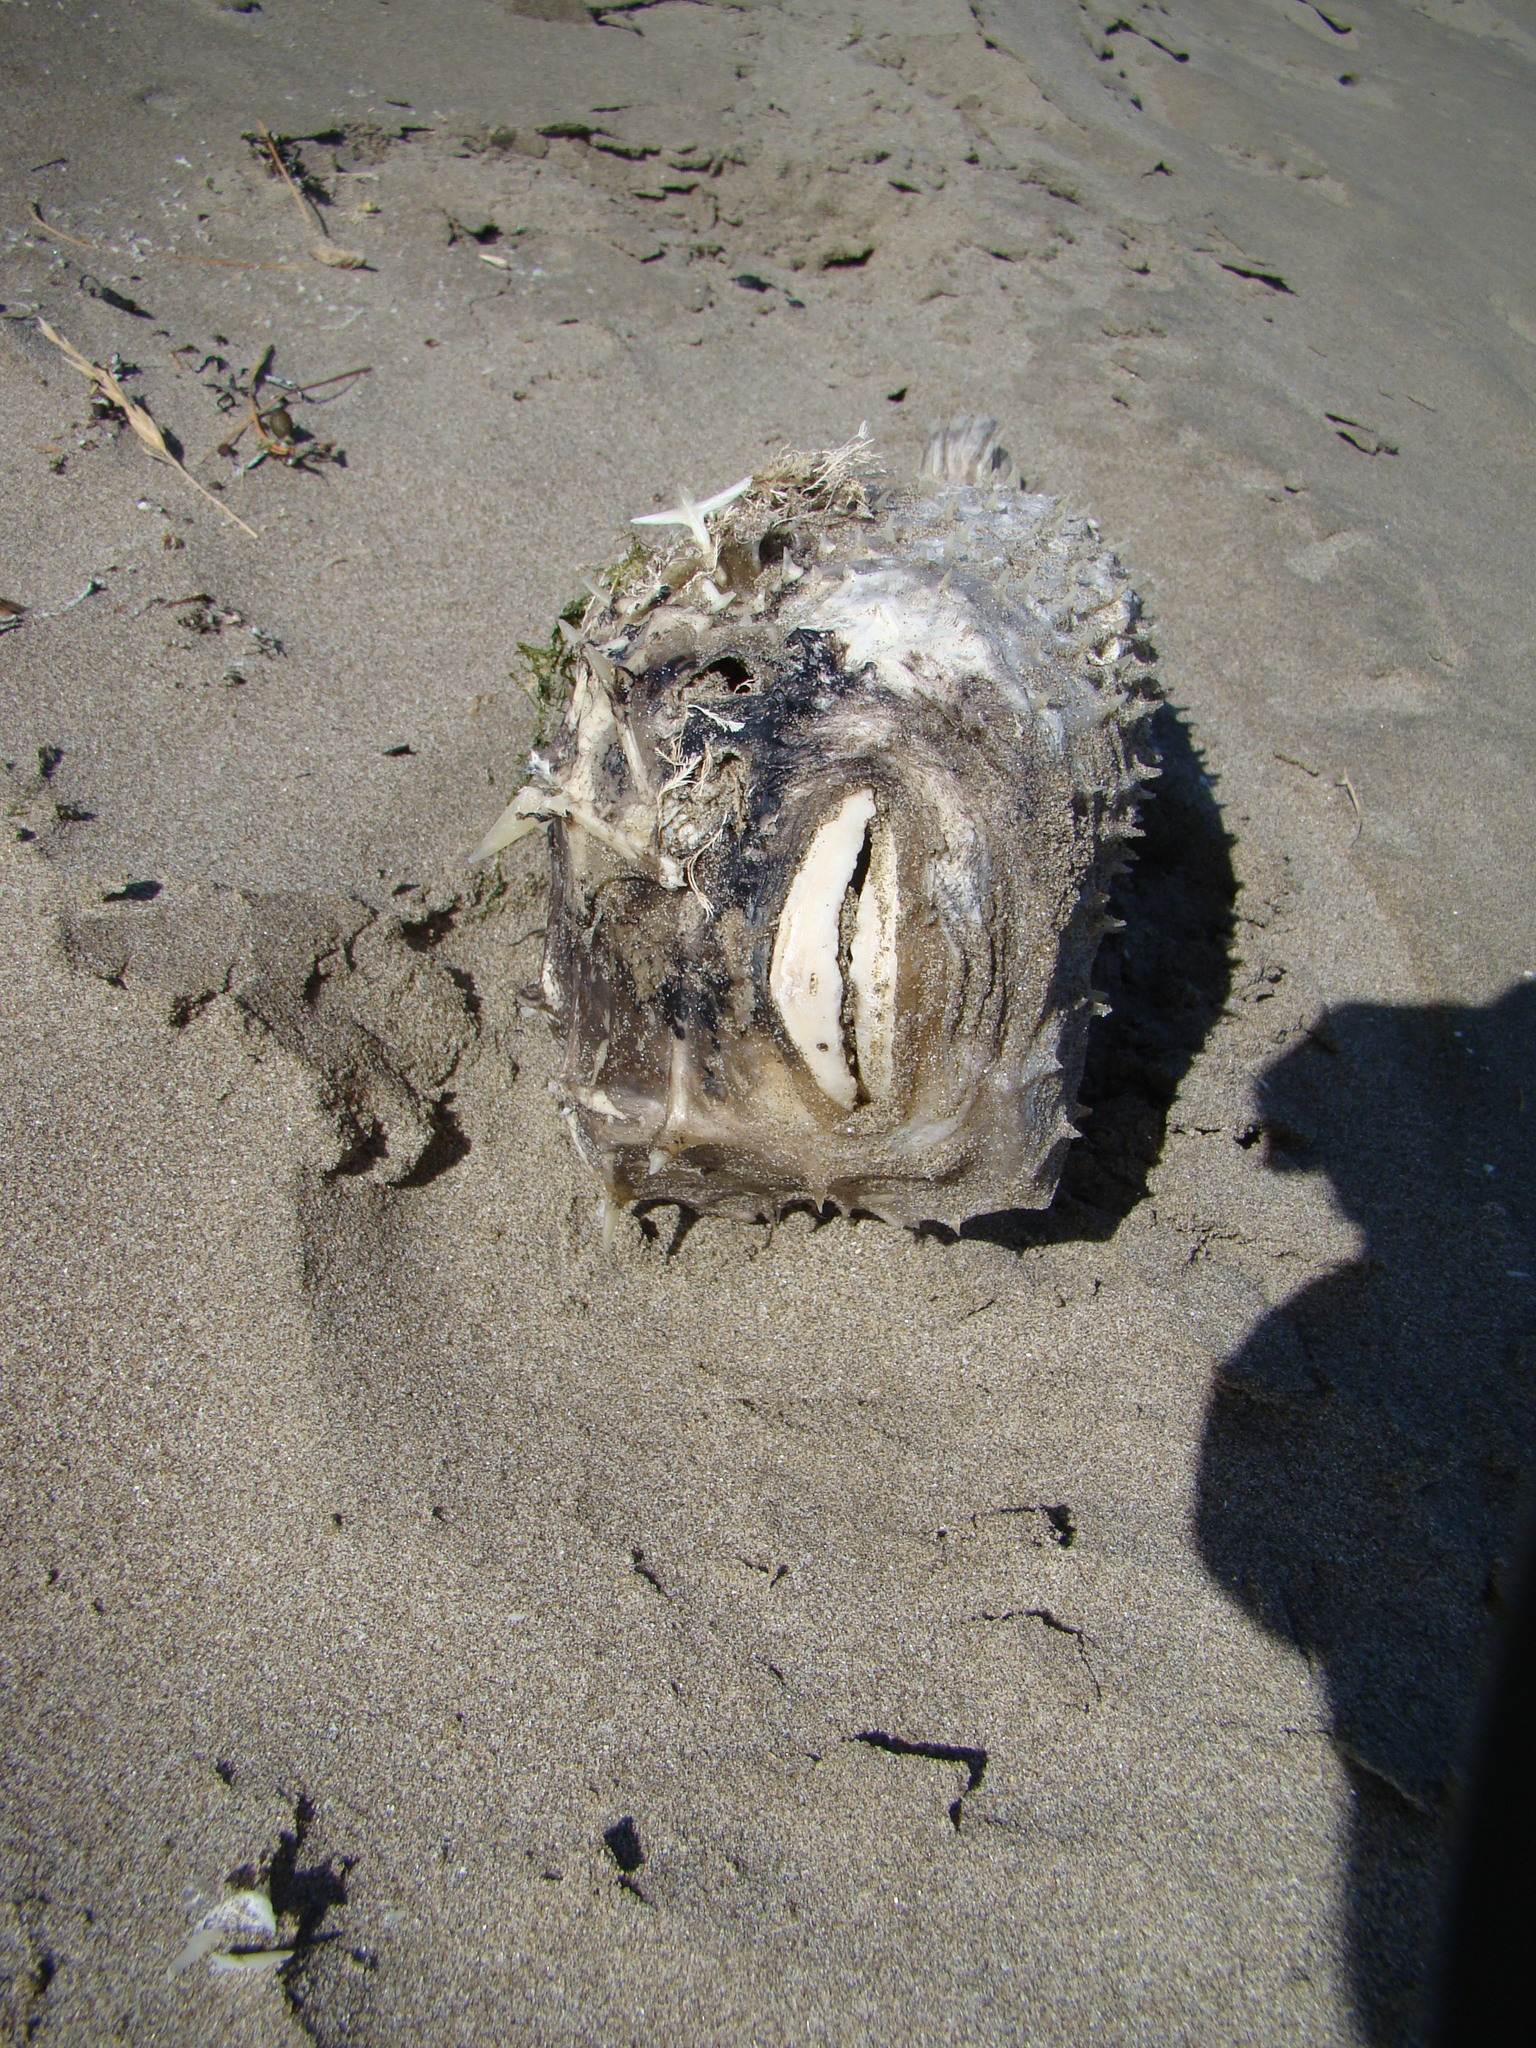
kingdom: Animalia
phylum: Chordata
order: Tetraodontiformes
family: Diodontidae
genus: Allomycterus
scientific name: Allomycterus pilatus
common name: No common name
